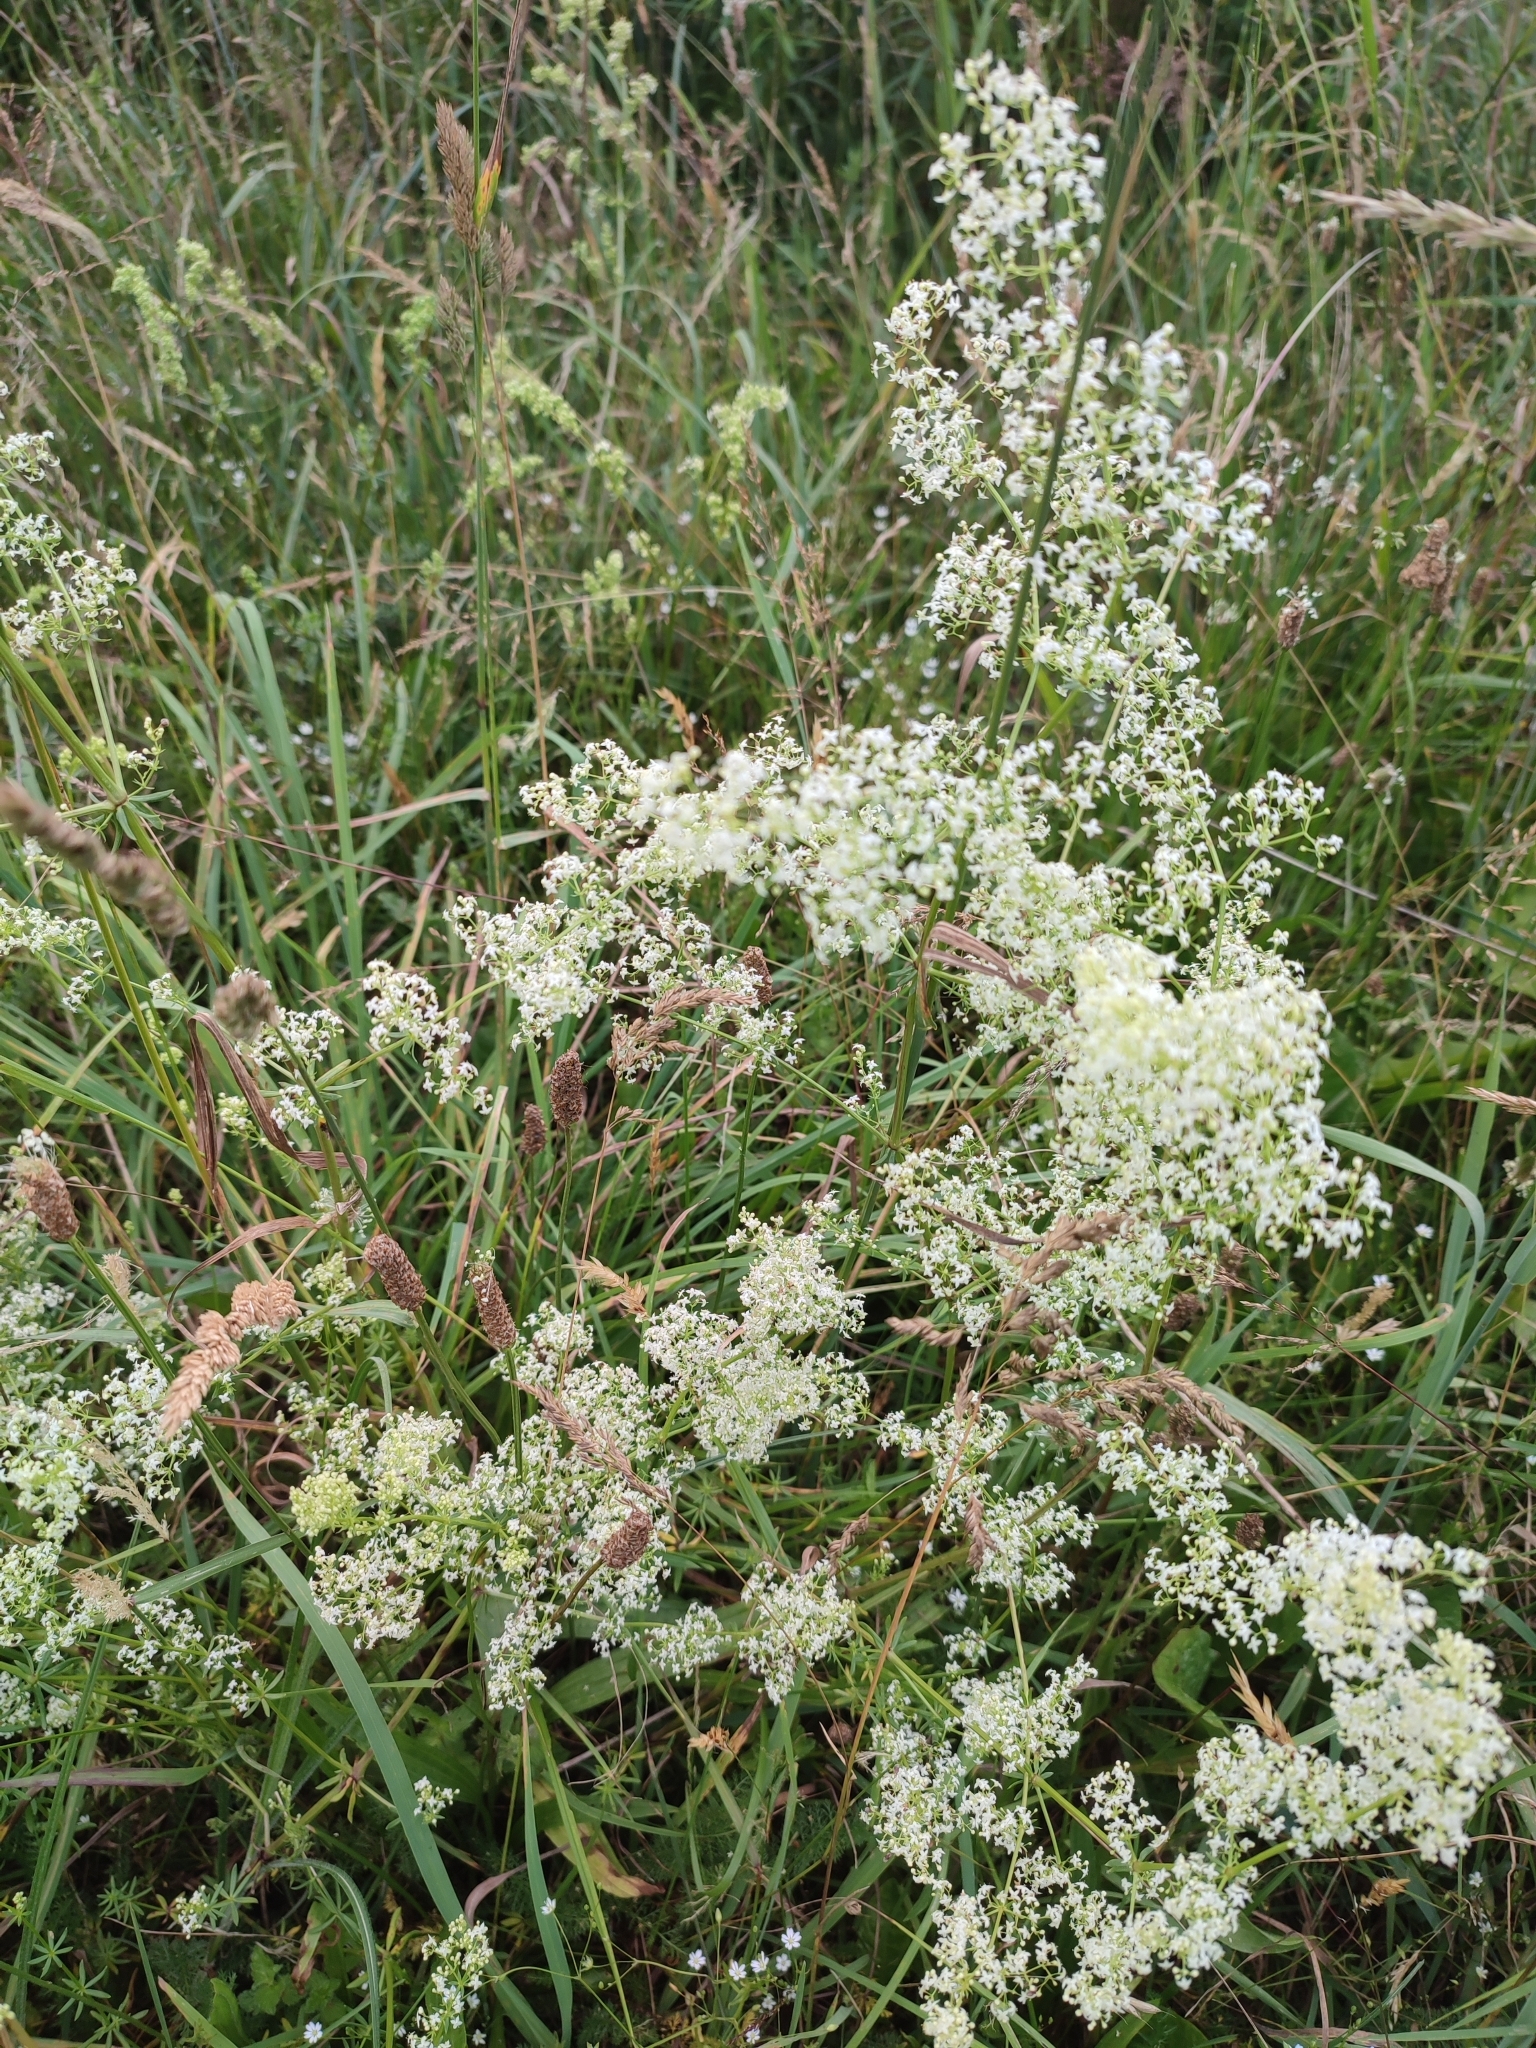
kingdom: Plantae
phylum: Tracheophyta
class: Magnoliopsida
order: Gentianales
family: Rubiaceae
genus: Galium
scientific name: Galium album
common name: White bedstraw
